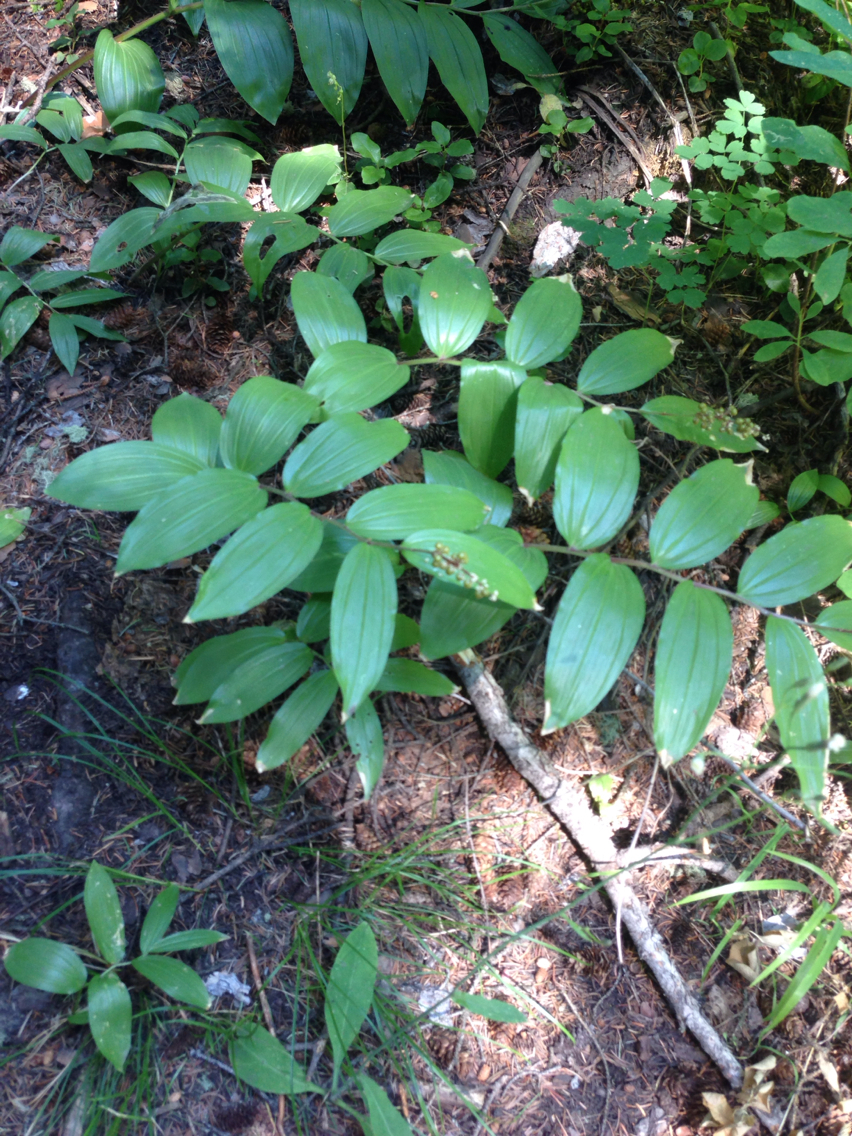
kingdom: Plantae
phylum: Tracheophyta
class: Liliopsida
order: Asparagales
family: Asparagaceae
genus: Maianthemum
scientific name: Maianthemum racemosum
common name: False spikenard
